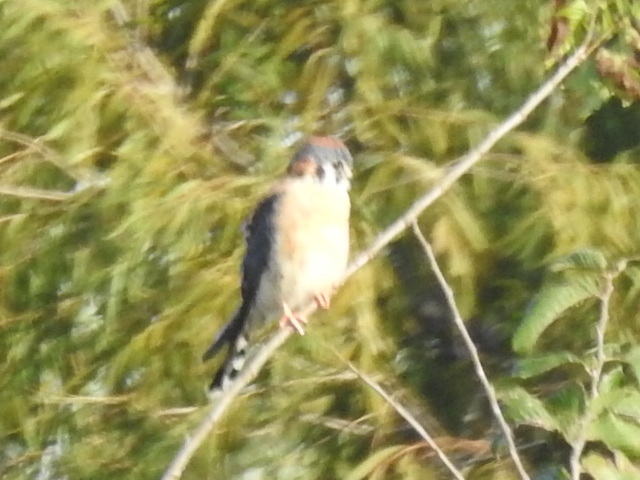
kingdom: Animalia
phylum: Chordata
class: Aves
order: Falconiformes
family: Falconidae
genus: Falco
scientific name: Falco sparverius
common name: American kestrel
